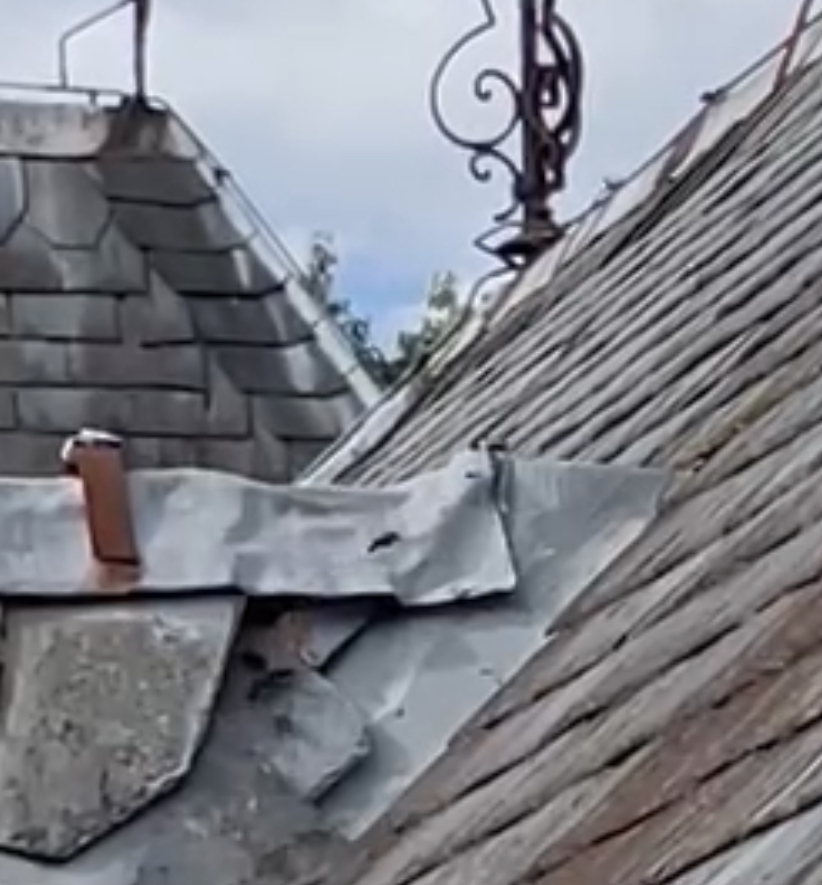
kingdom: Animalia
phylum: Arthropoda
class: Insecta
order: Hymenoptera
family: Vespidae
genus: Vespa
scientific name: Vespa velutina
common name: Asian hornet
